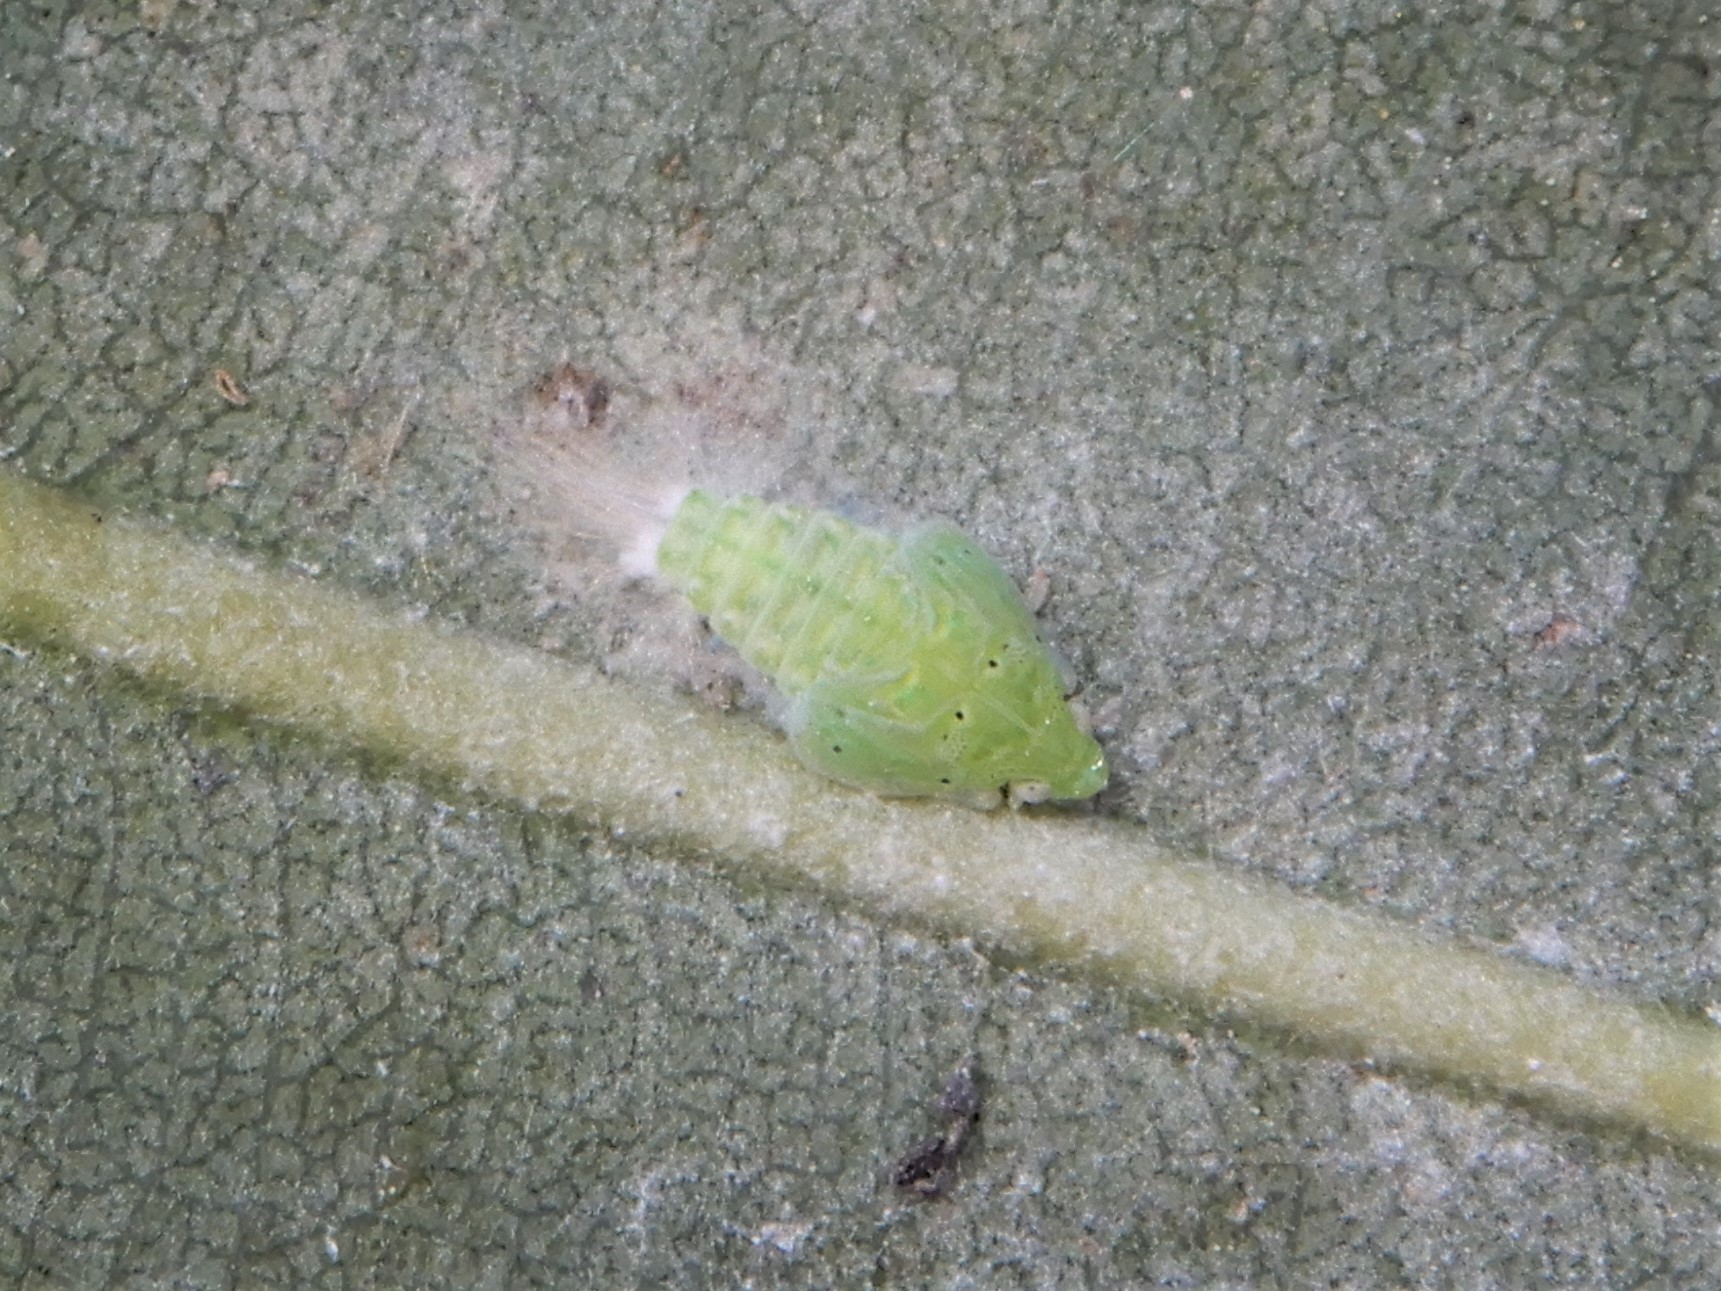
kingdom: Animalia
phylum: Arthropoda
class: Insecta
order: Hemiptera
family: Flatidae
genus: Siphanta
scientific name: Siphanta acuta
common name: Torpedo bug
